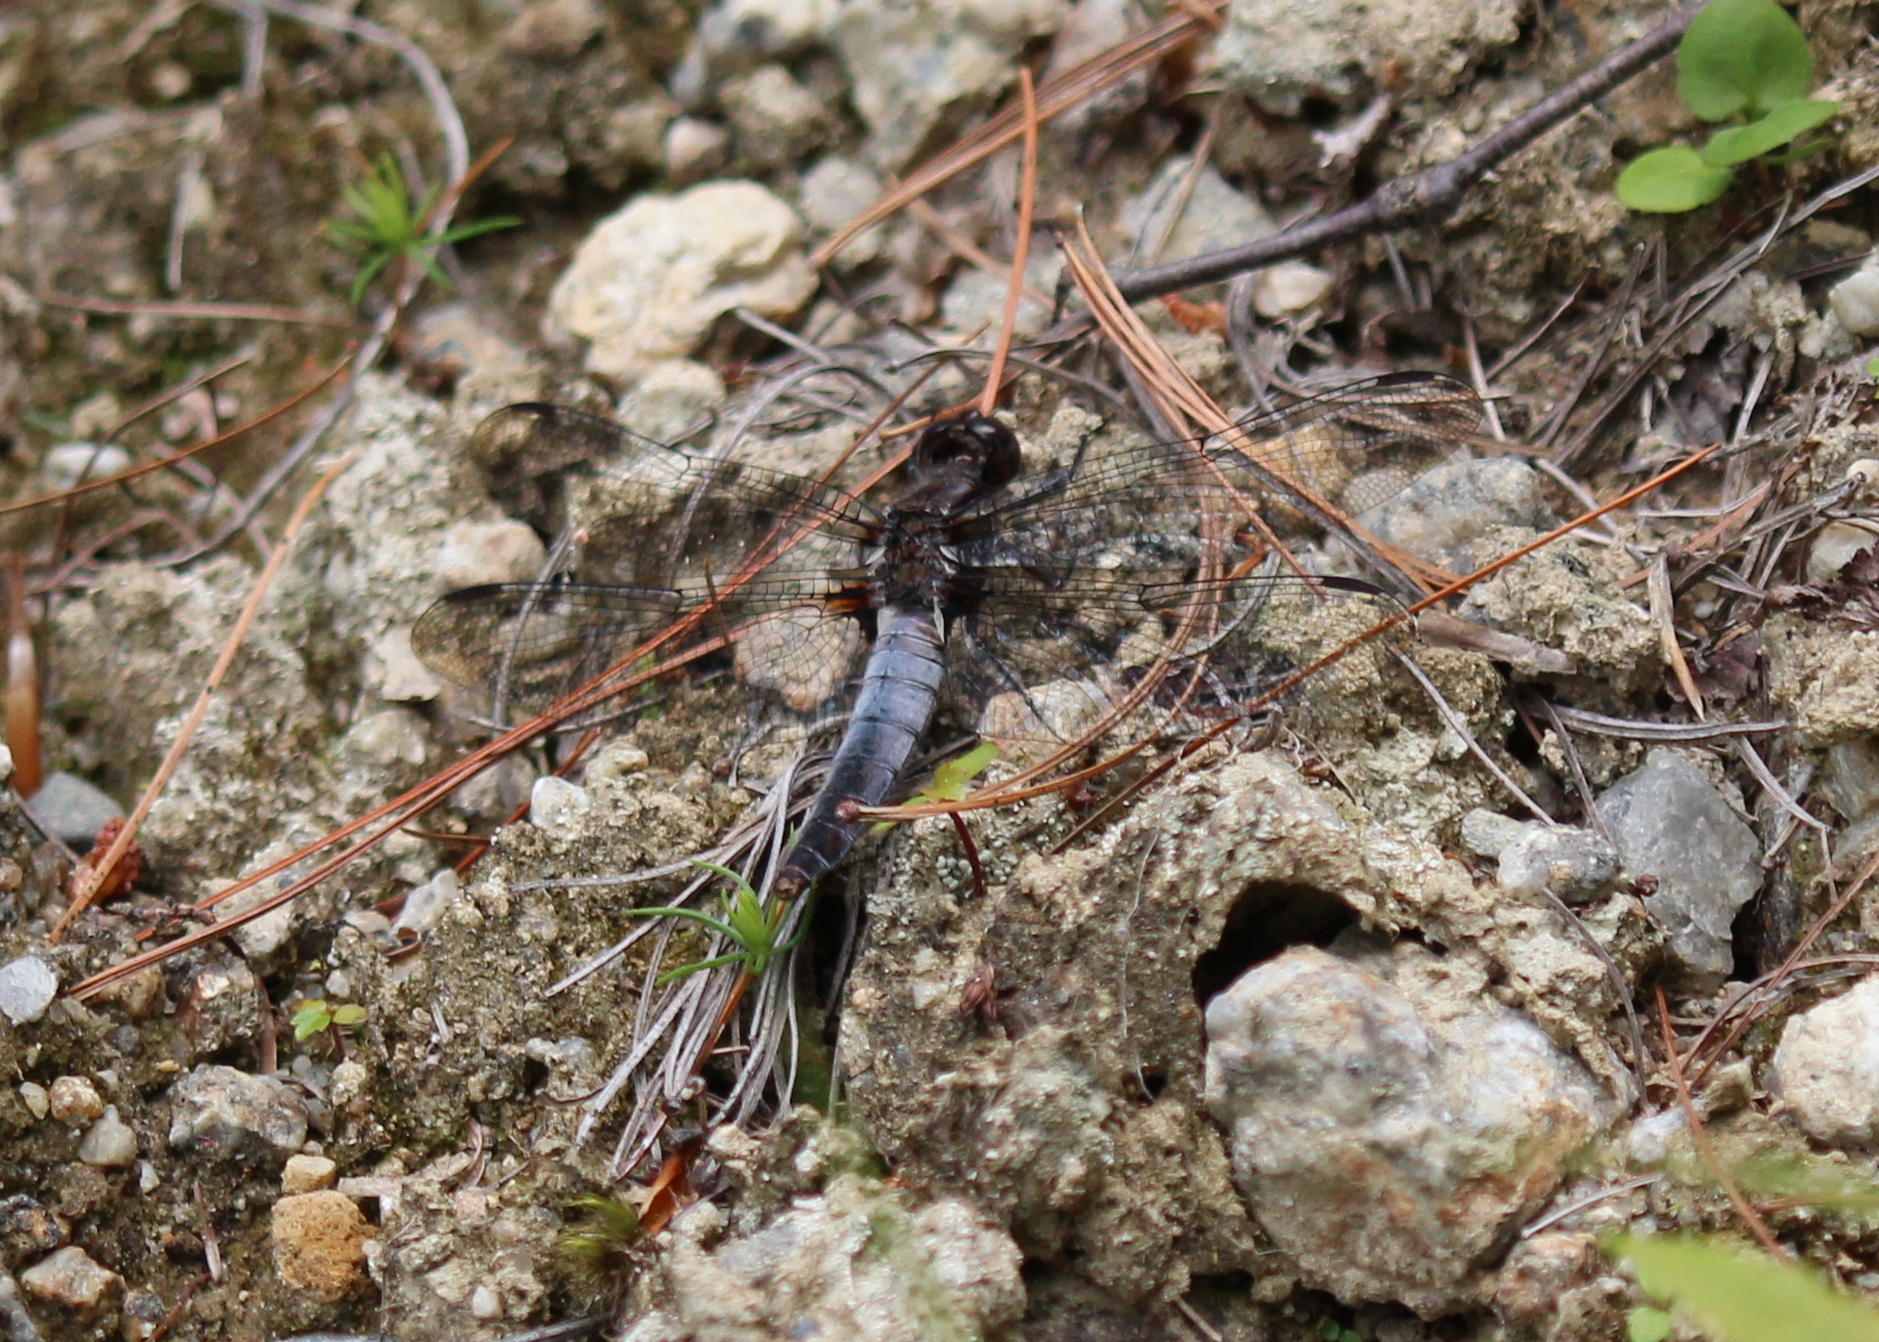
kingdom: Animalia
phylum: Arthropoda
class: Insecta
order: Odonata
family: Libellulidae
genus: Ladona
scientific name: Ladona julia
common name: Chalk-fronted corporal
